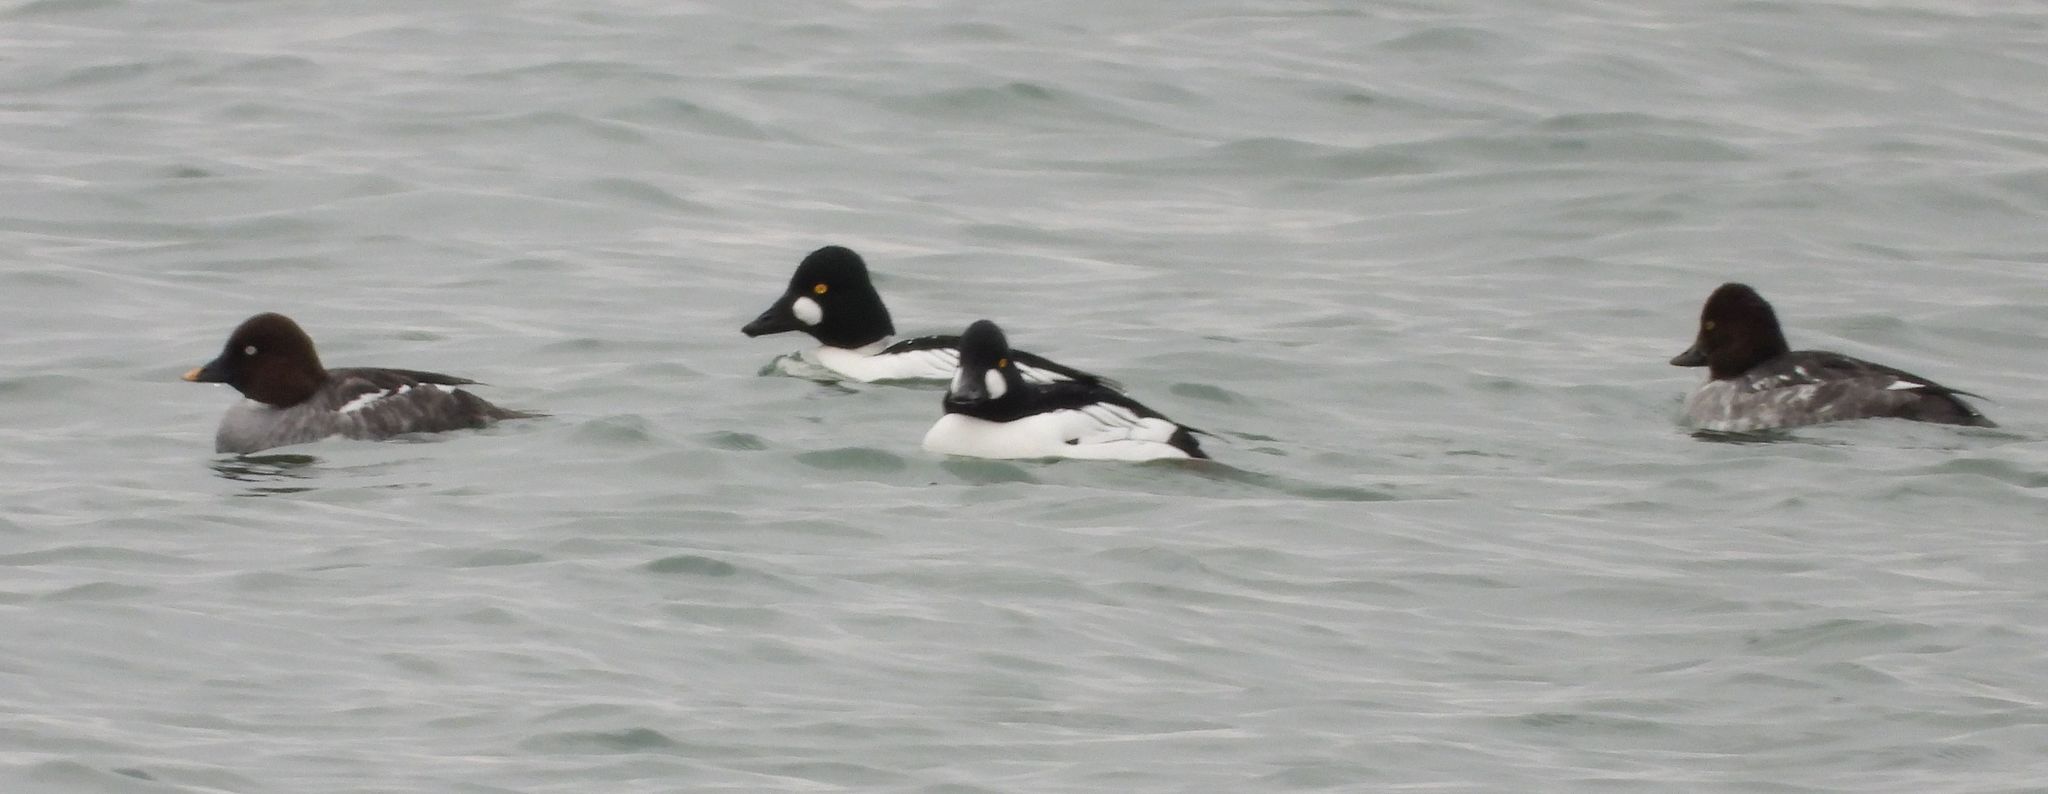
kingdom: Animalia
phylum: Chordata
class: Aves
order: Anseriformes
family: Anatidae
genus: Bucephala
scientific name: Bucephala clangula
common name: Common goldeneye
